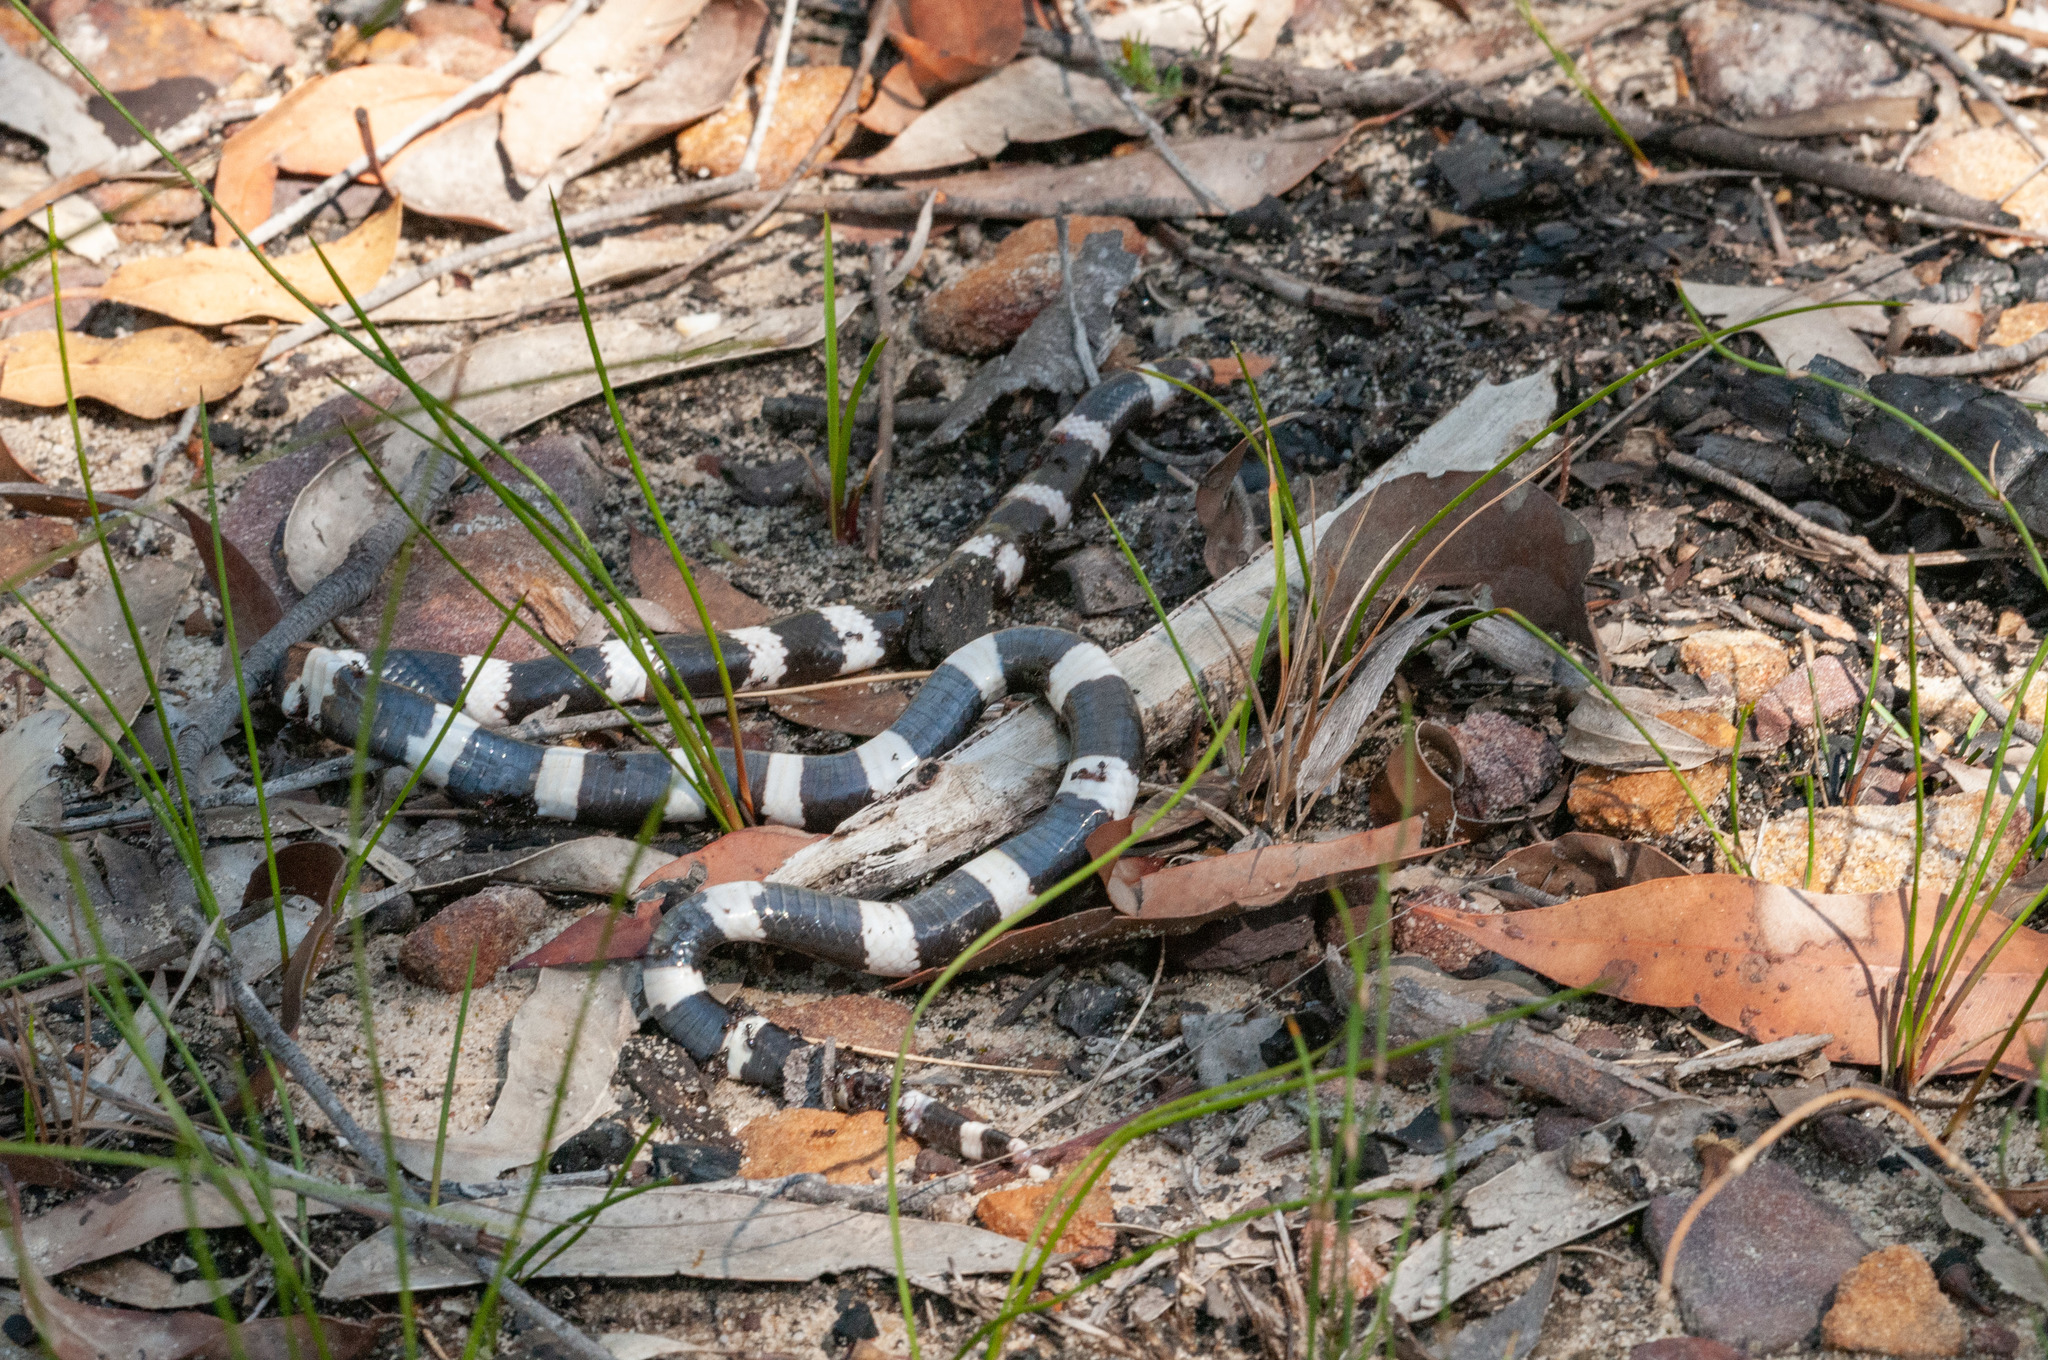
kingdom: Animalia
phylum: Chordata
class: Squamata
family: Elapidae
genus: Vermicella
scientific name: Vermicella annulata
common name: Bandy bandy
